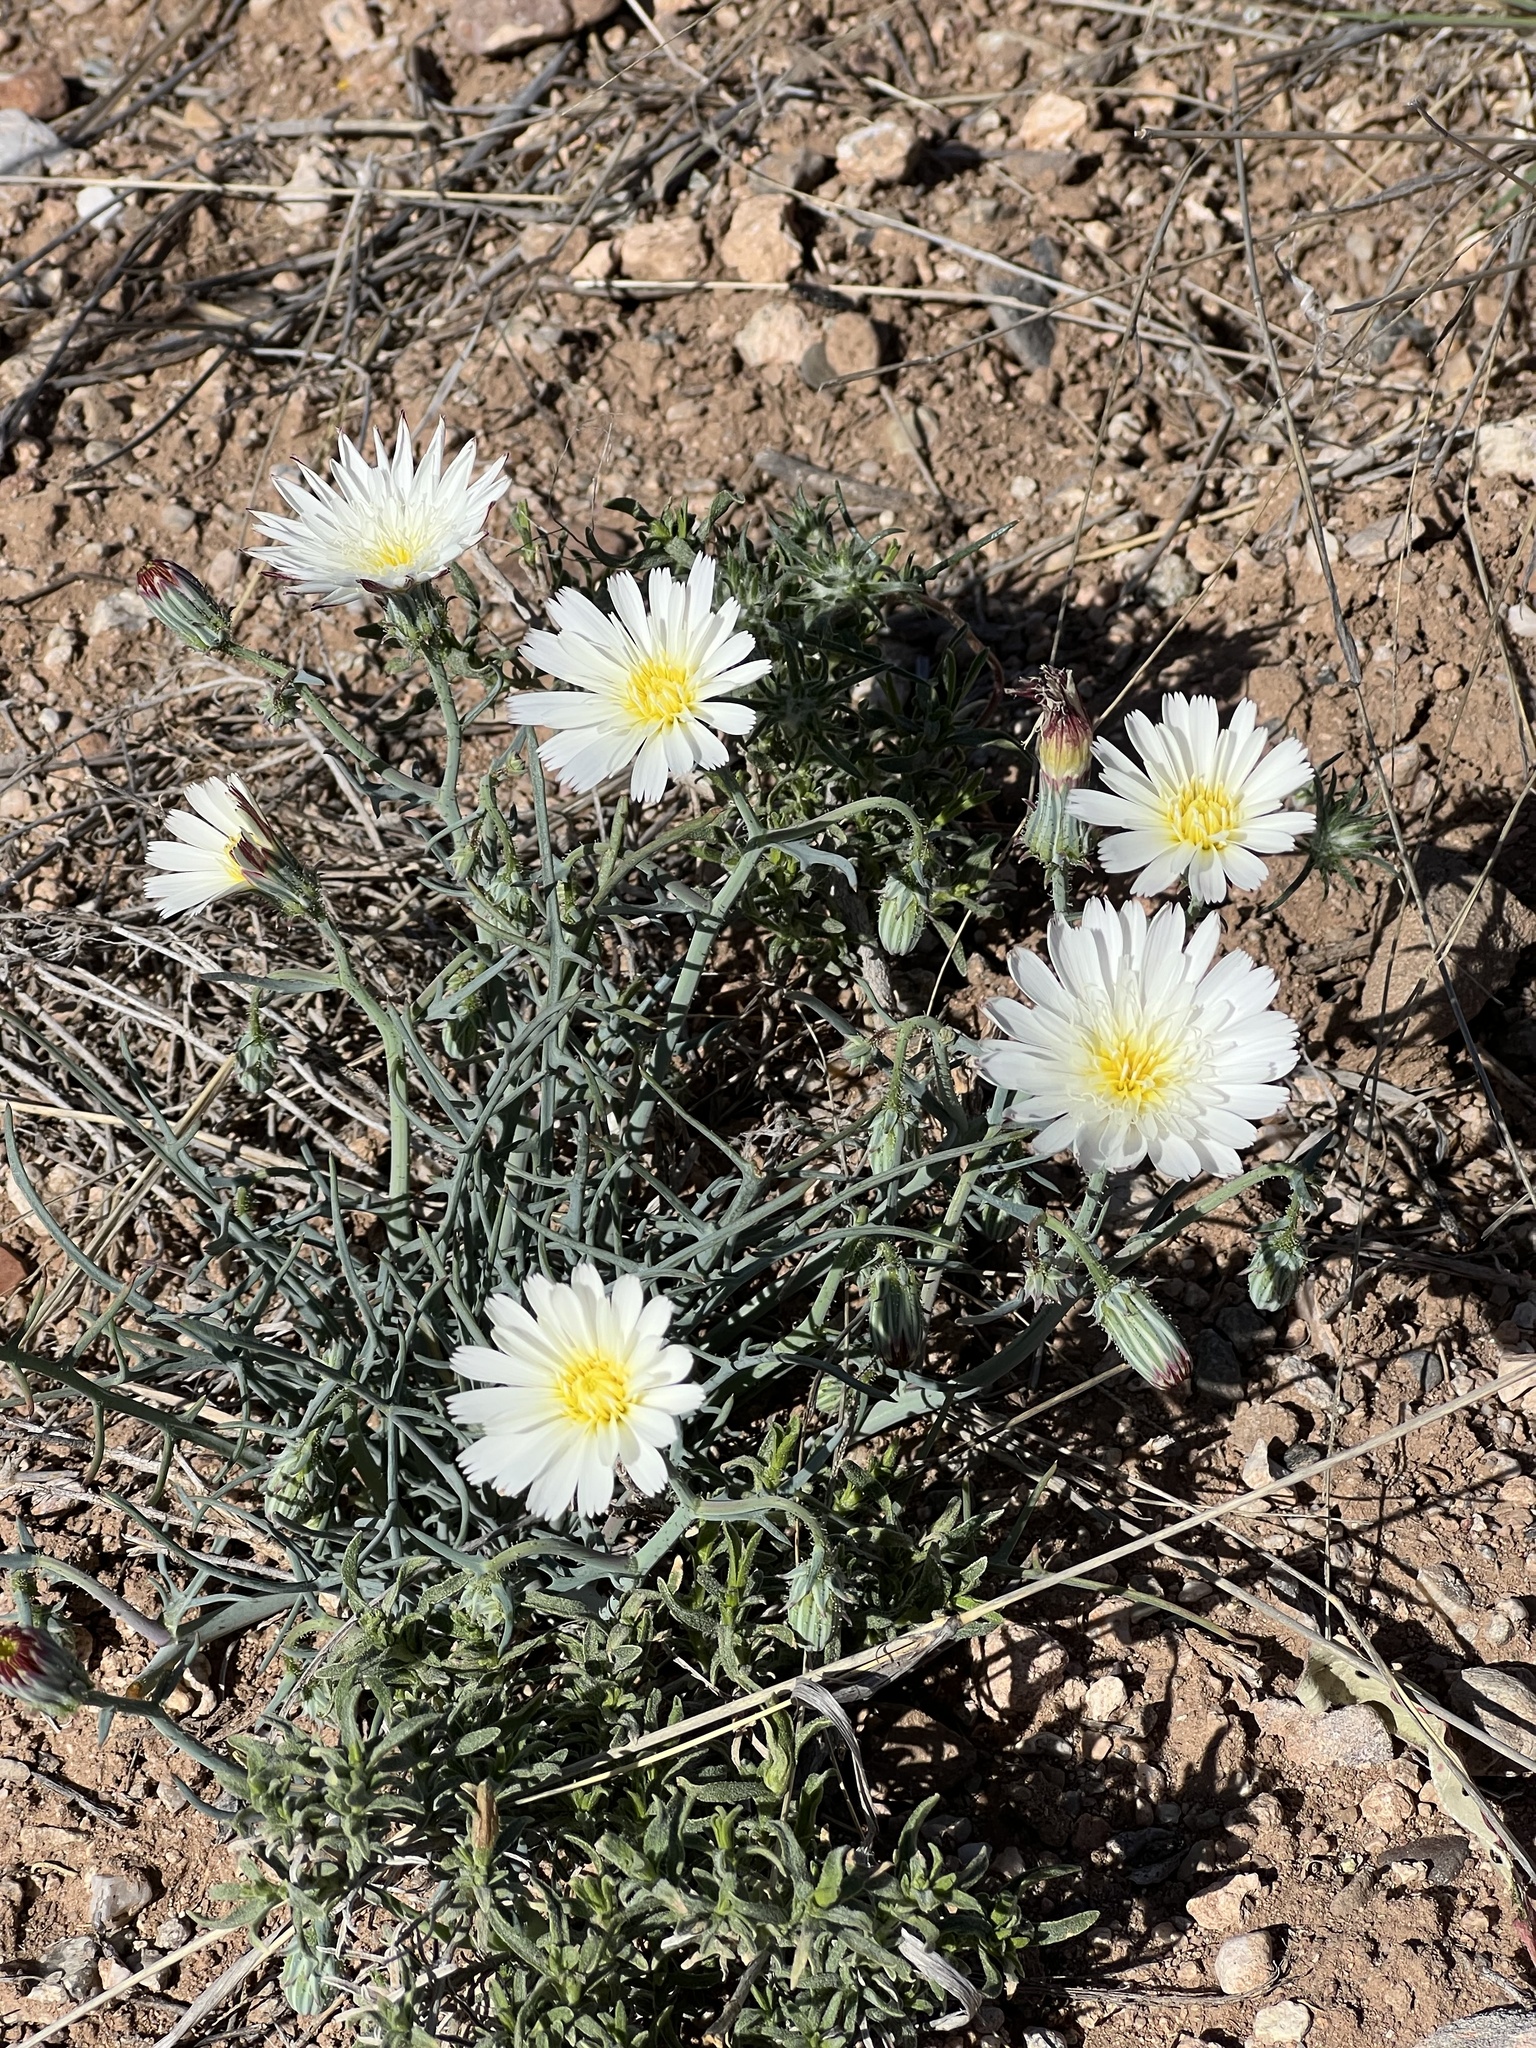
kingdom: Plantae
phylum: Tracheophyta
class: Magnoliopsida
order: Asterales
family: Asteraceae
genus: Calycoseris
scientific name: Calycoseris wrightii
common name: White tackstem
